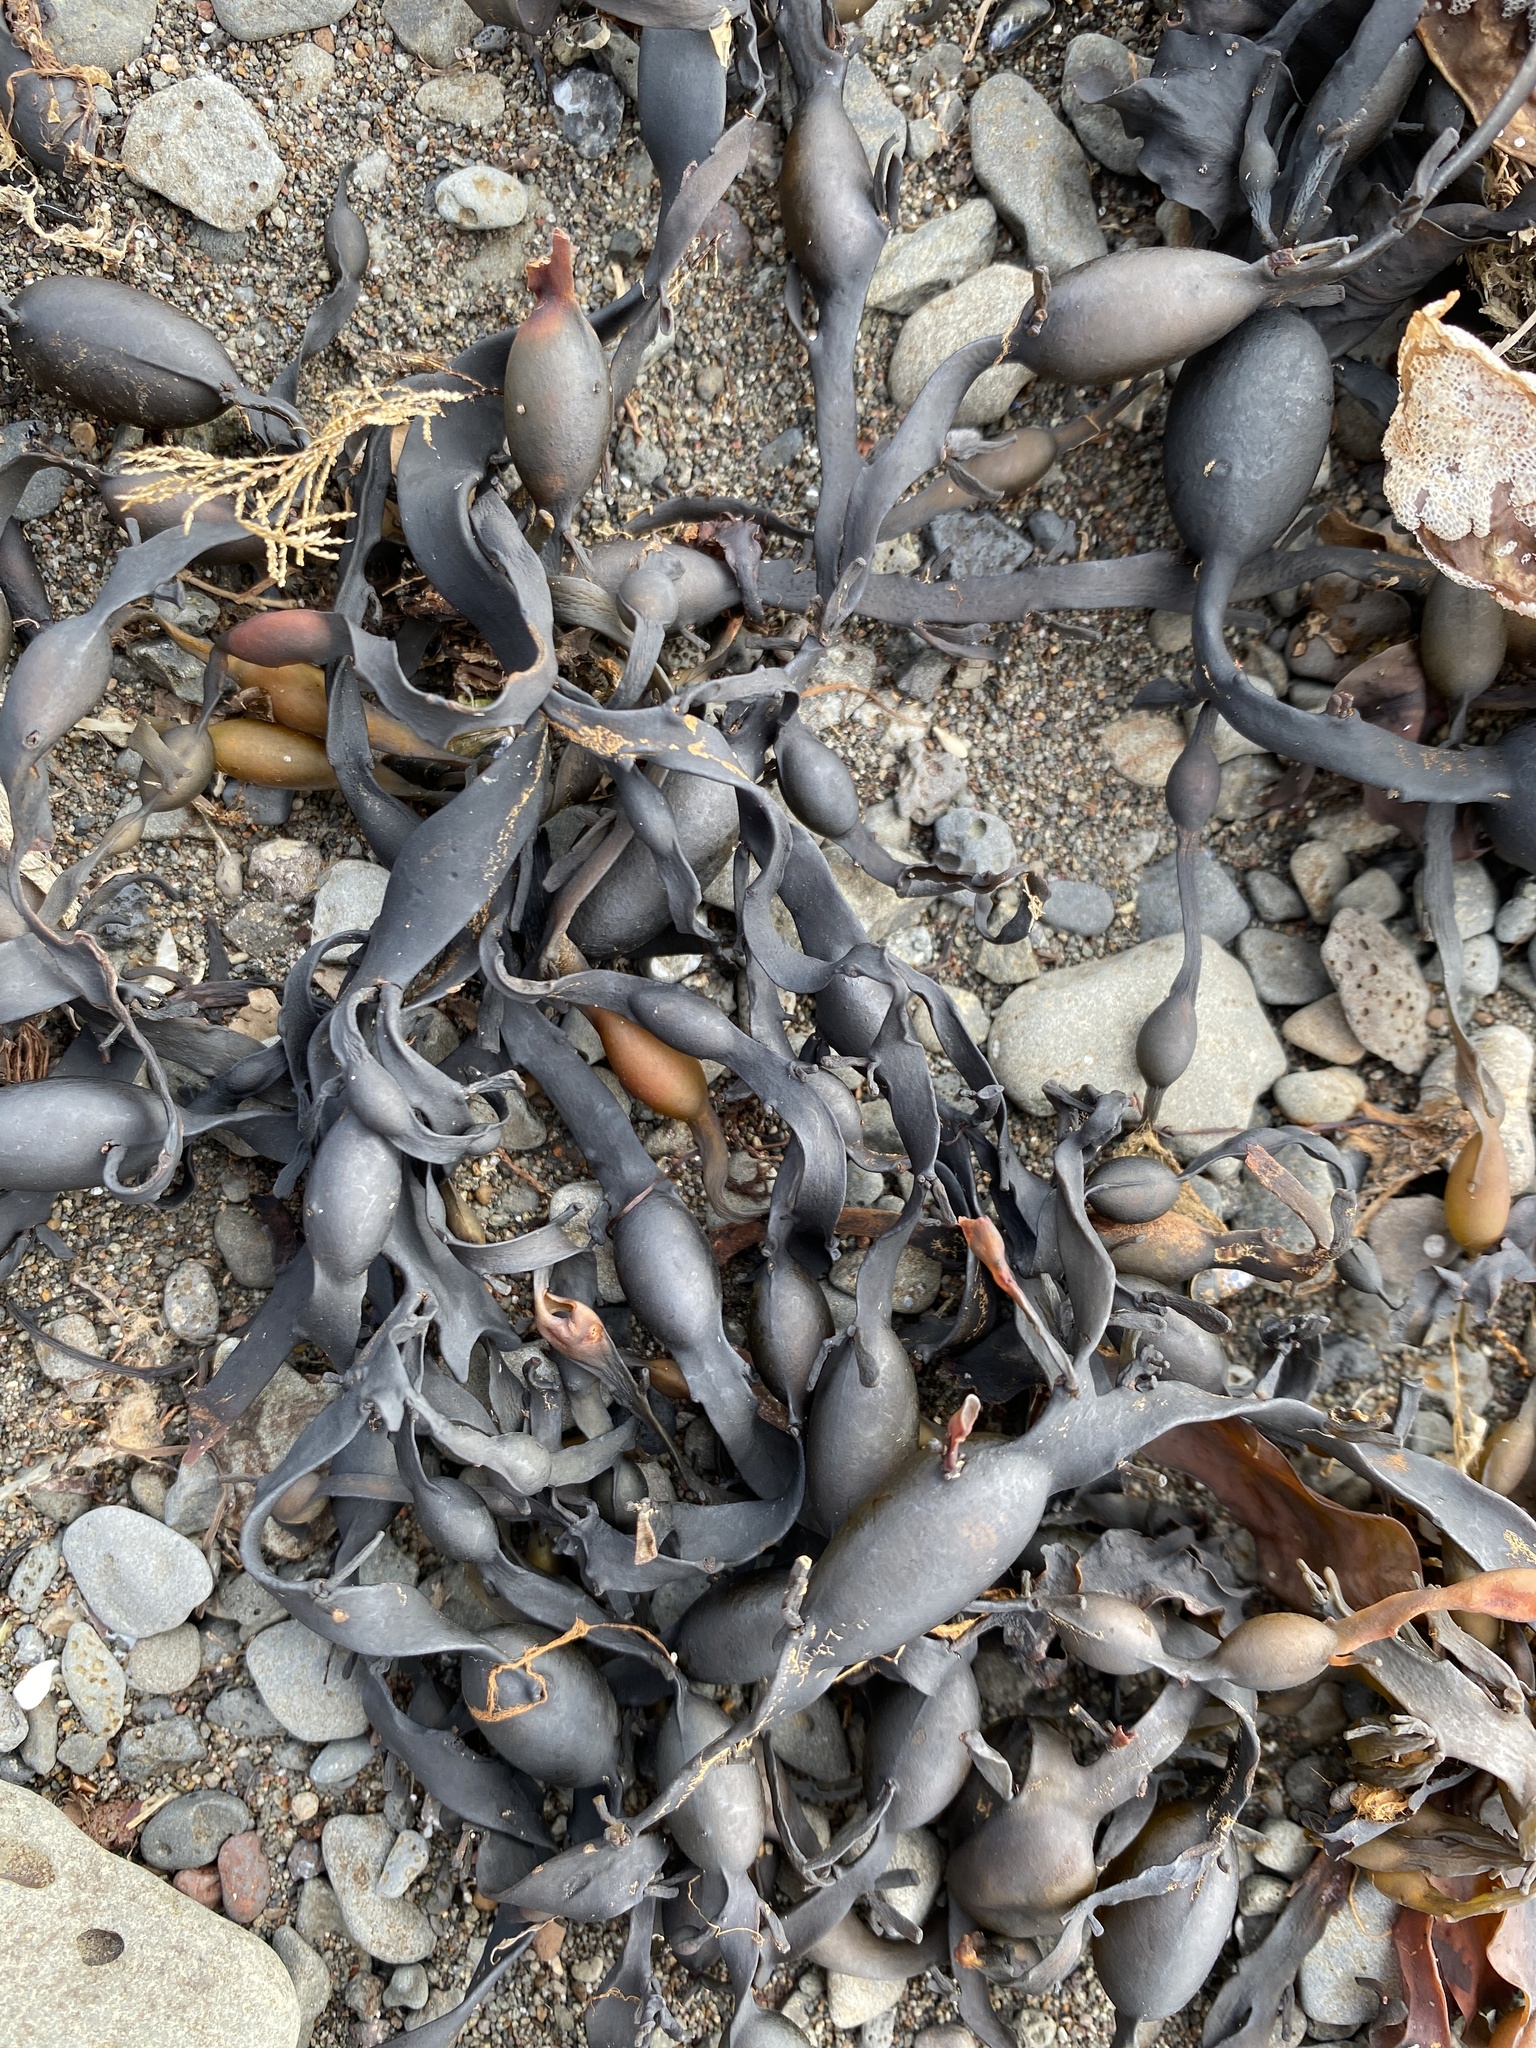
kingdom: Chromista
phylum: Ochrophyta
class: Phaeophyceae
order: Fucales
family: Fucaceae
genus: Ascophyllum
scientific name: Ascophyllum nodosum
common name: Knotted wrack
